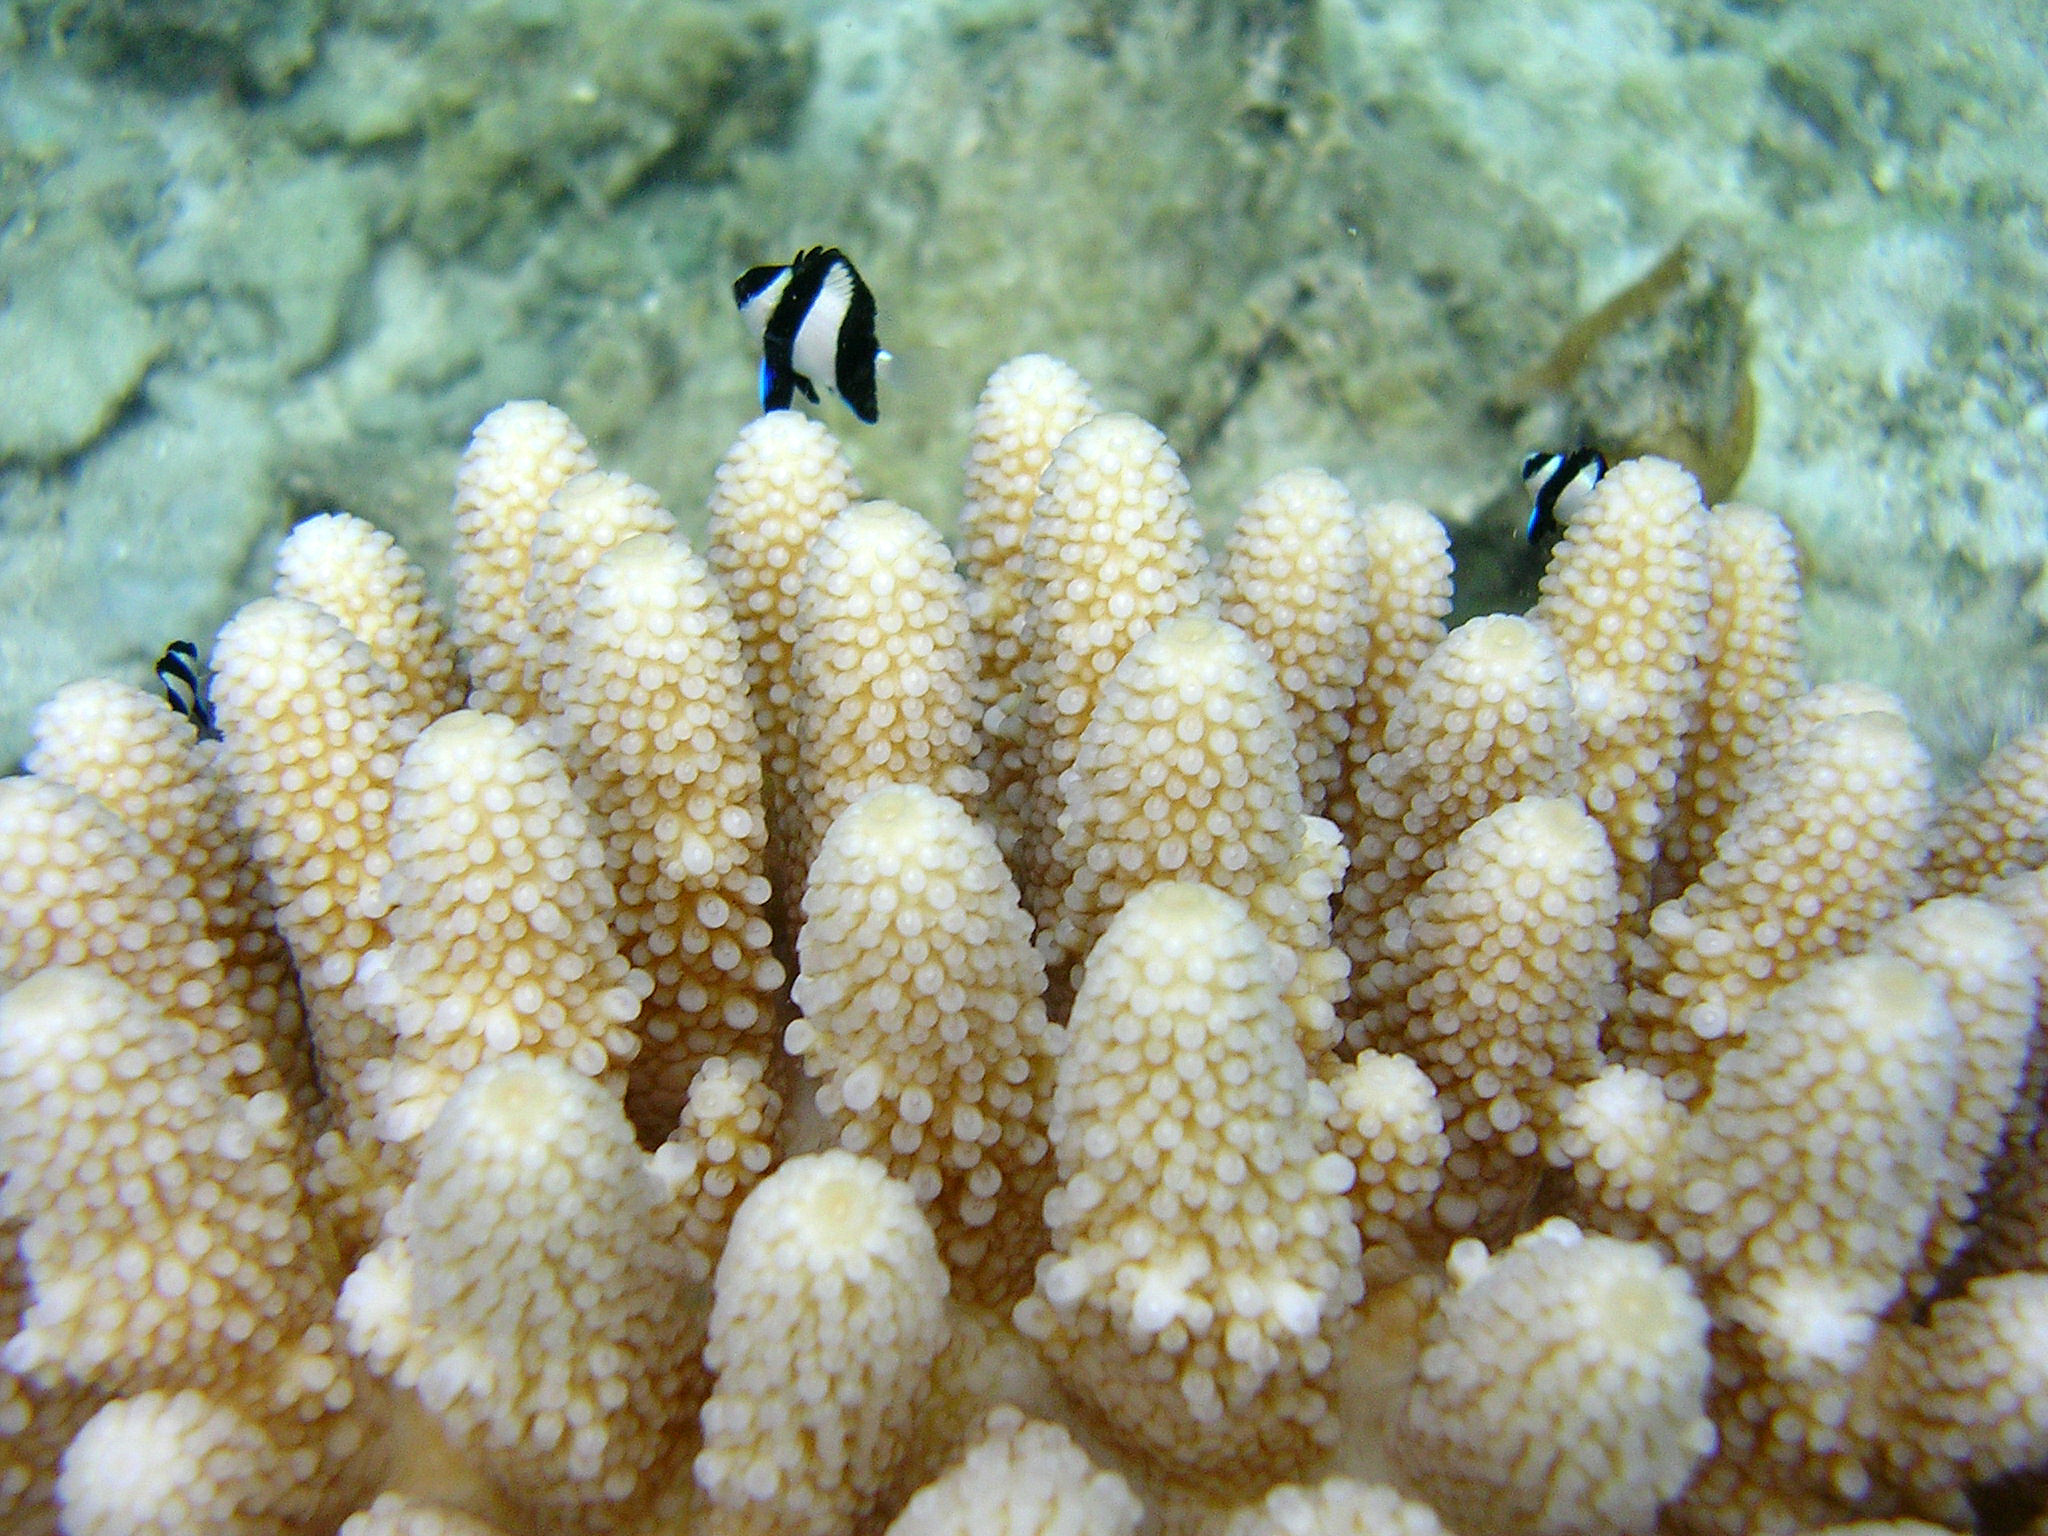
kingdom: Animalia
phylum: Chordata
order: Perciformes
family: Pomacentridae
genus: Dascyllus
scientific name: Dascyllus aruanus
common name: Humbug dascyllus
